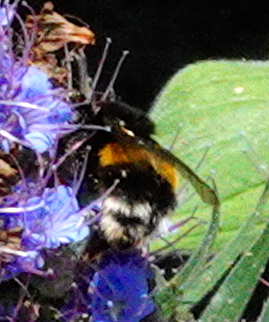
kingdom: Animalia
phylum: Arthropoda
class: Insecta
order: Hymenoptera
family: Apidae
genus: Bombus
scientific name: Bombus terrestris
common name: Buff-tailed bumblebee
